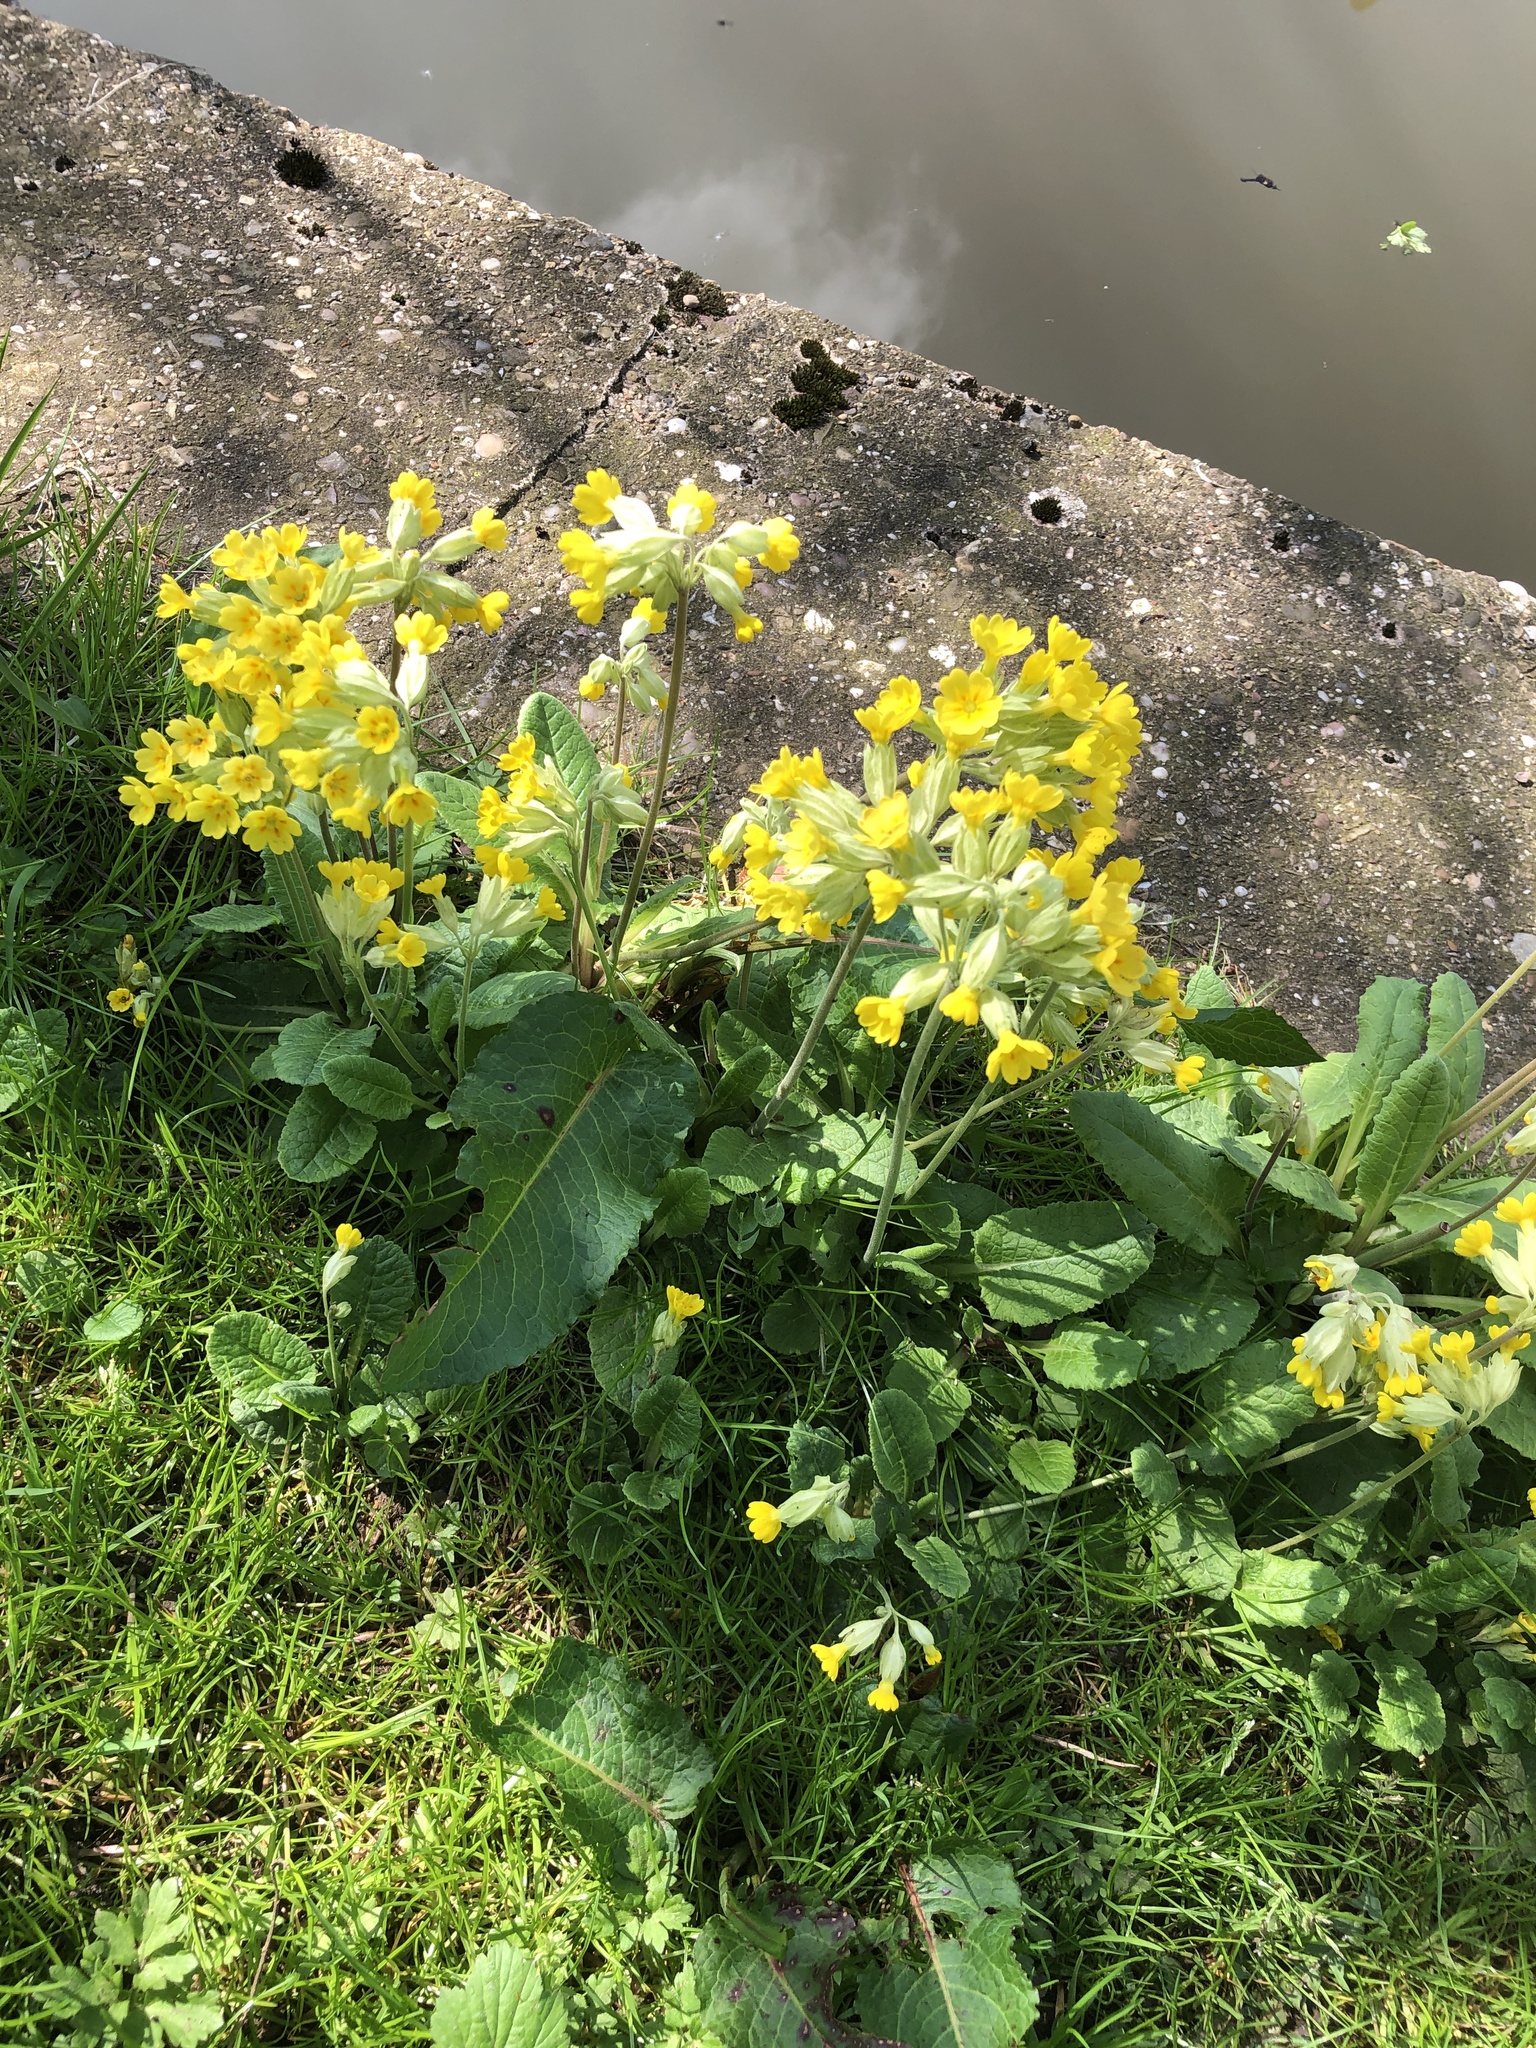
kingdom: Plantae
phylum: Tracheophyta
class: Magnoliopsida
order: Ericales
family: Primulaceae
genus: Primula
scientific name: Primula veris
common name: Cowslip
